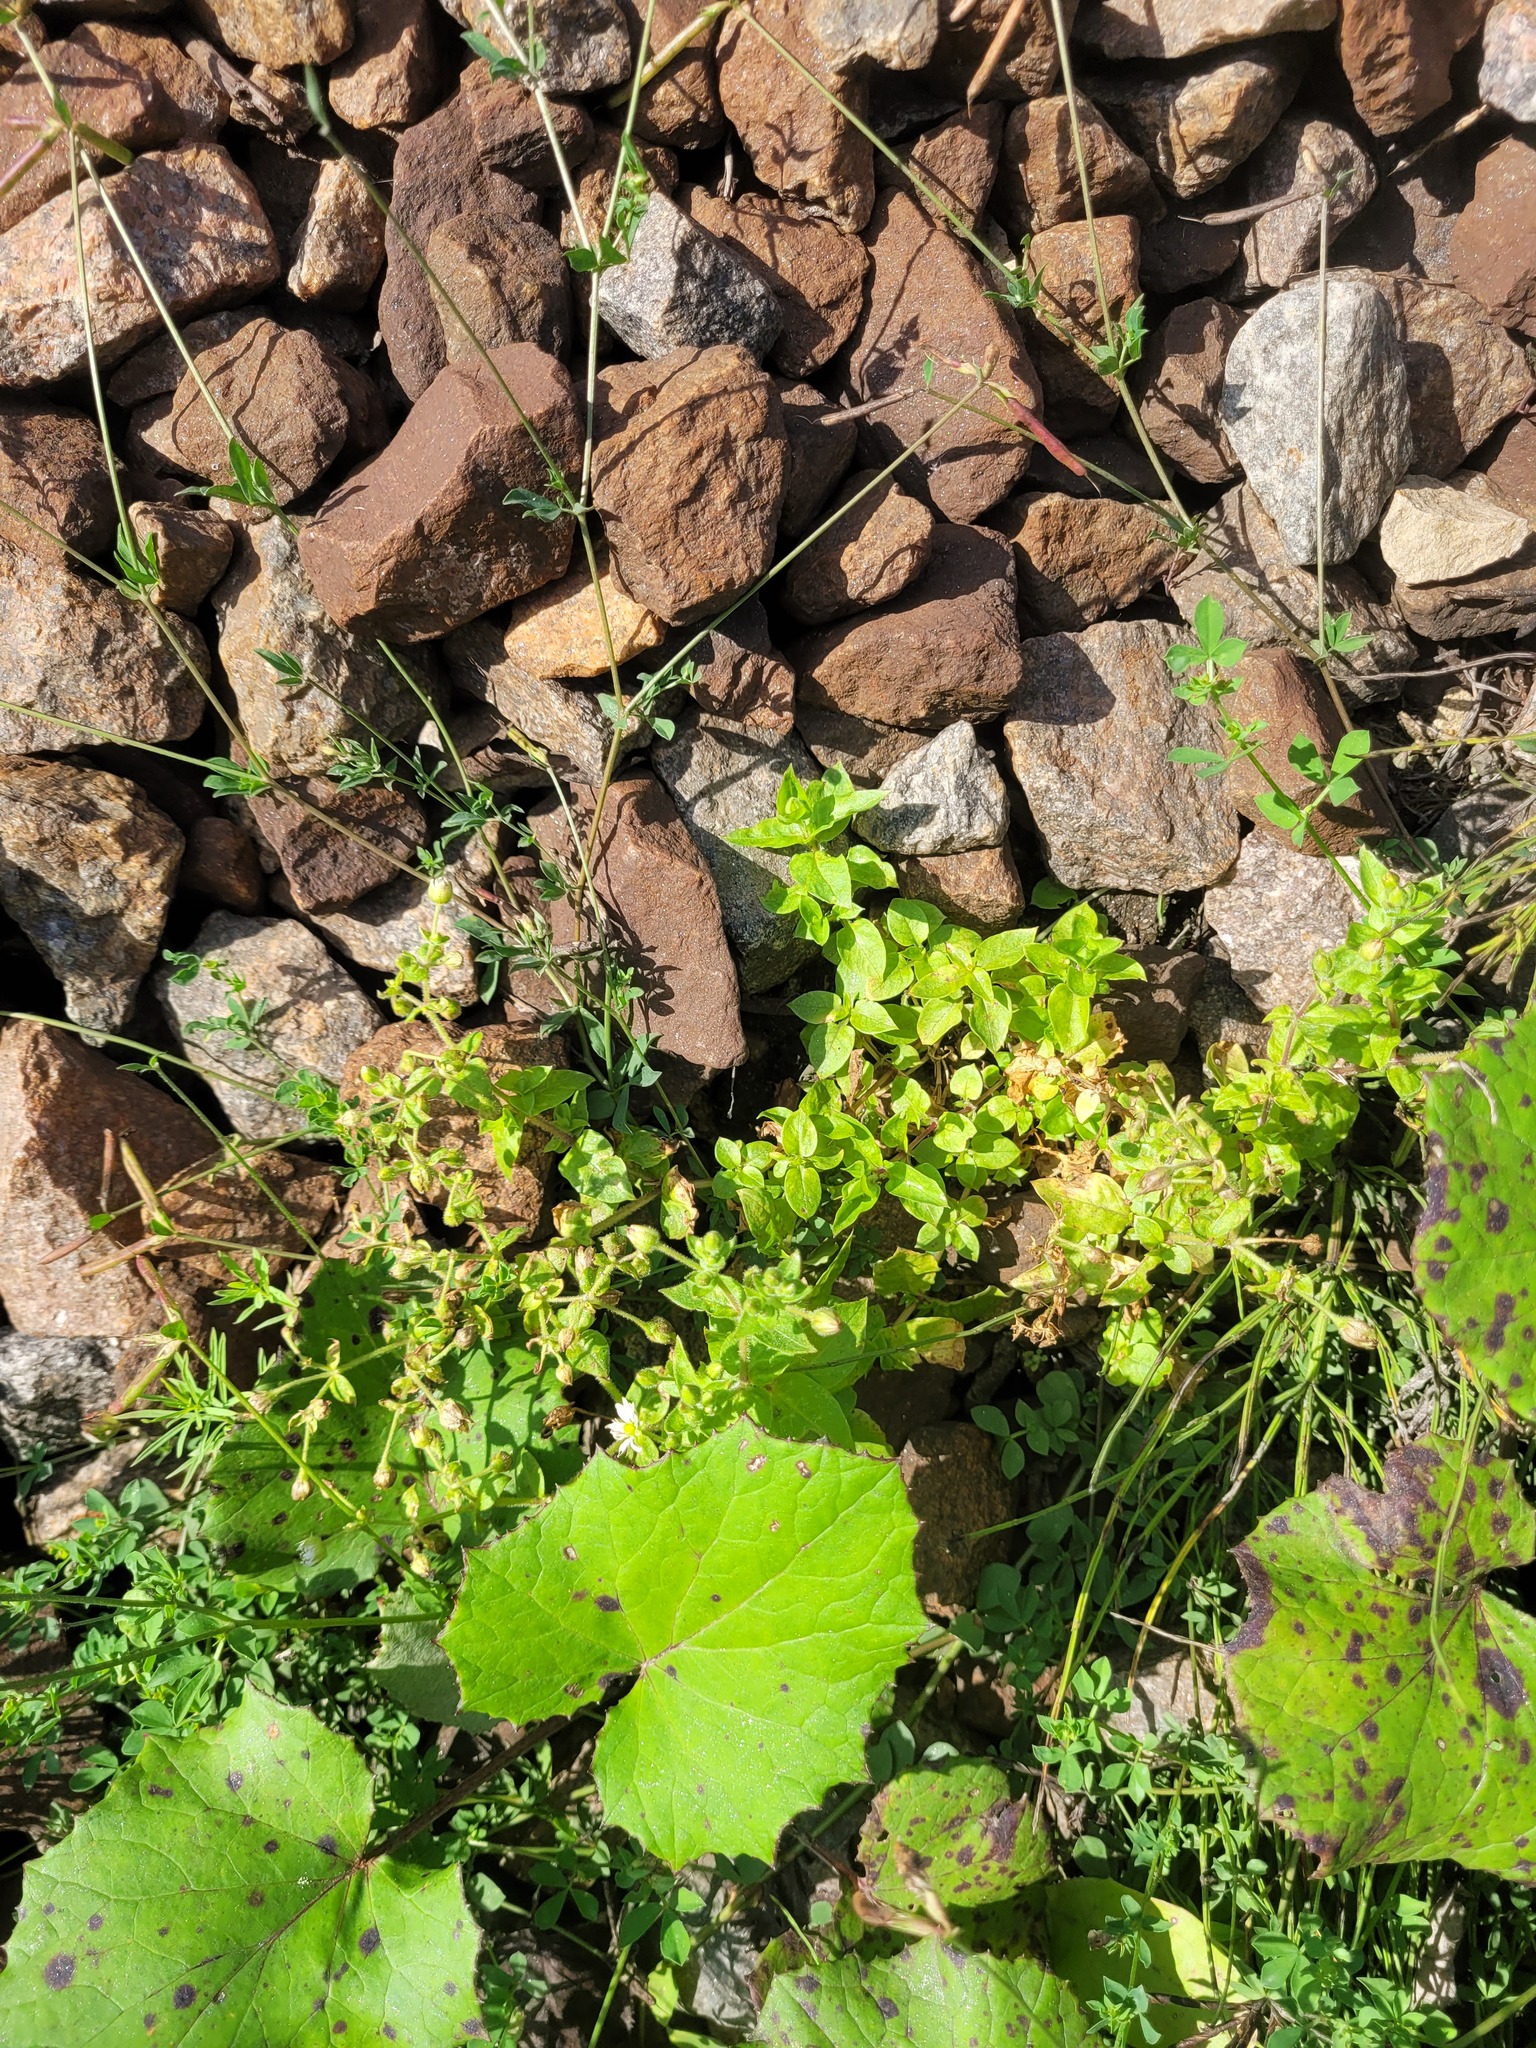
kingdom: Plantae
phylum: Tracheophyta
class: Magnoliopsida
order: Caryophyllales
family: Caryophyllaceae
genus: Stellaria
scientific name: Stellaria aquatica
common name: Water chickweed
